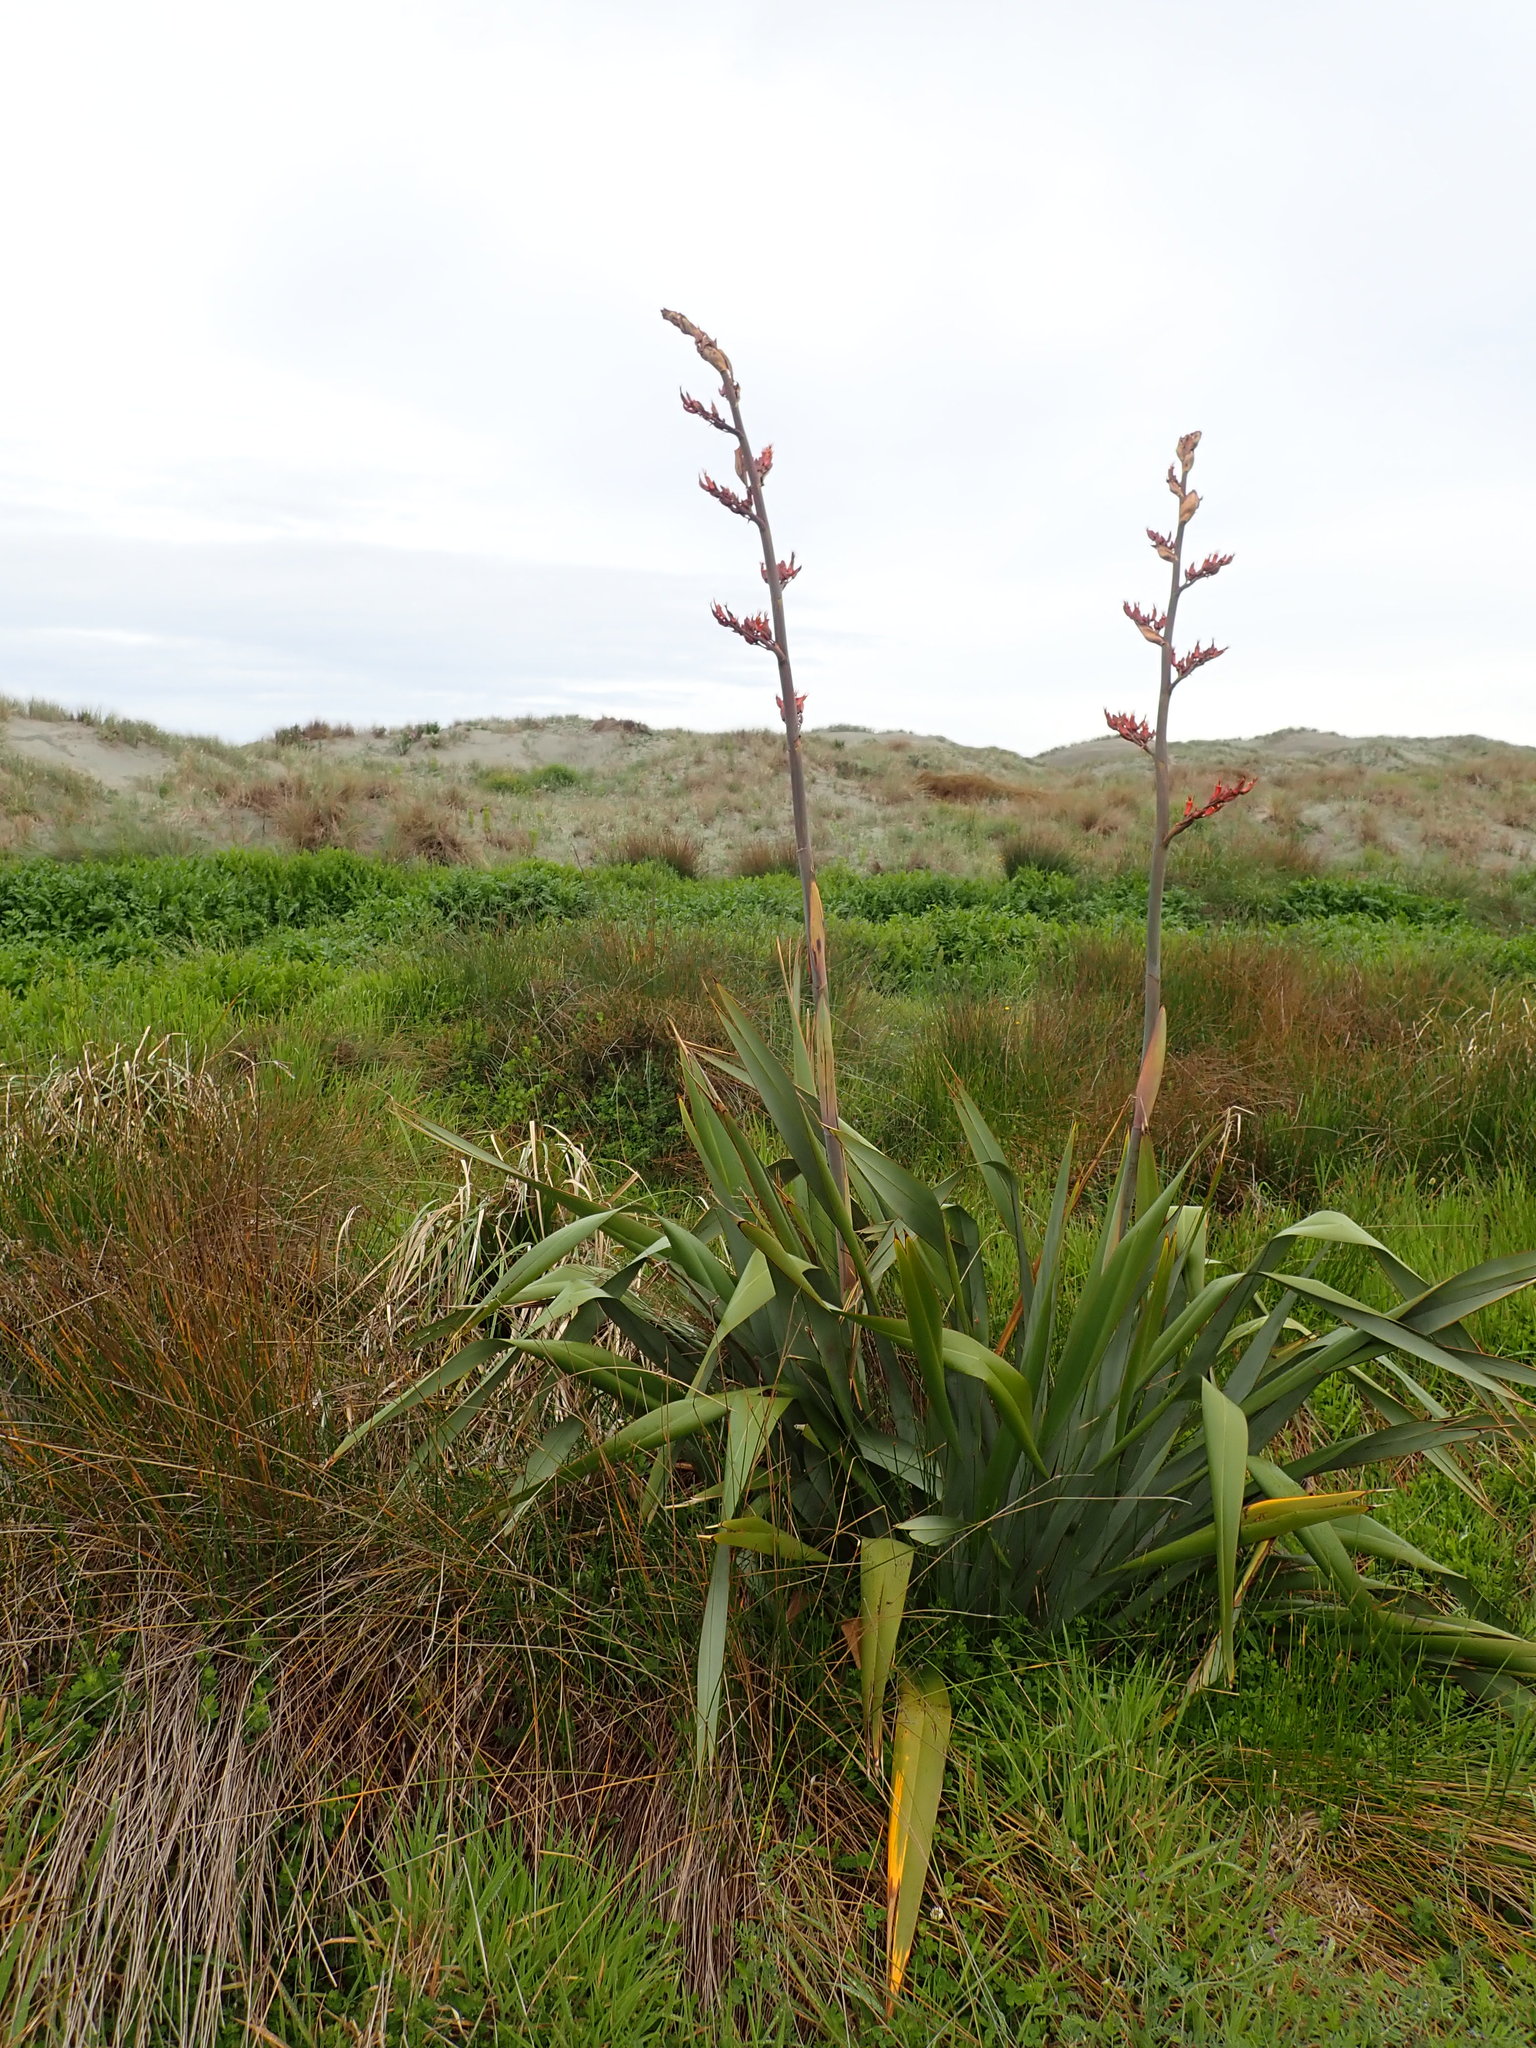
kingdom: Plantae
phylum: Tracheophyta
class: Liliopsida
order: Asparagales
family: Asphodelaceae
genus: Phormium
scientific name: Phormium tenax
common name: New zealand flax
